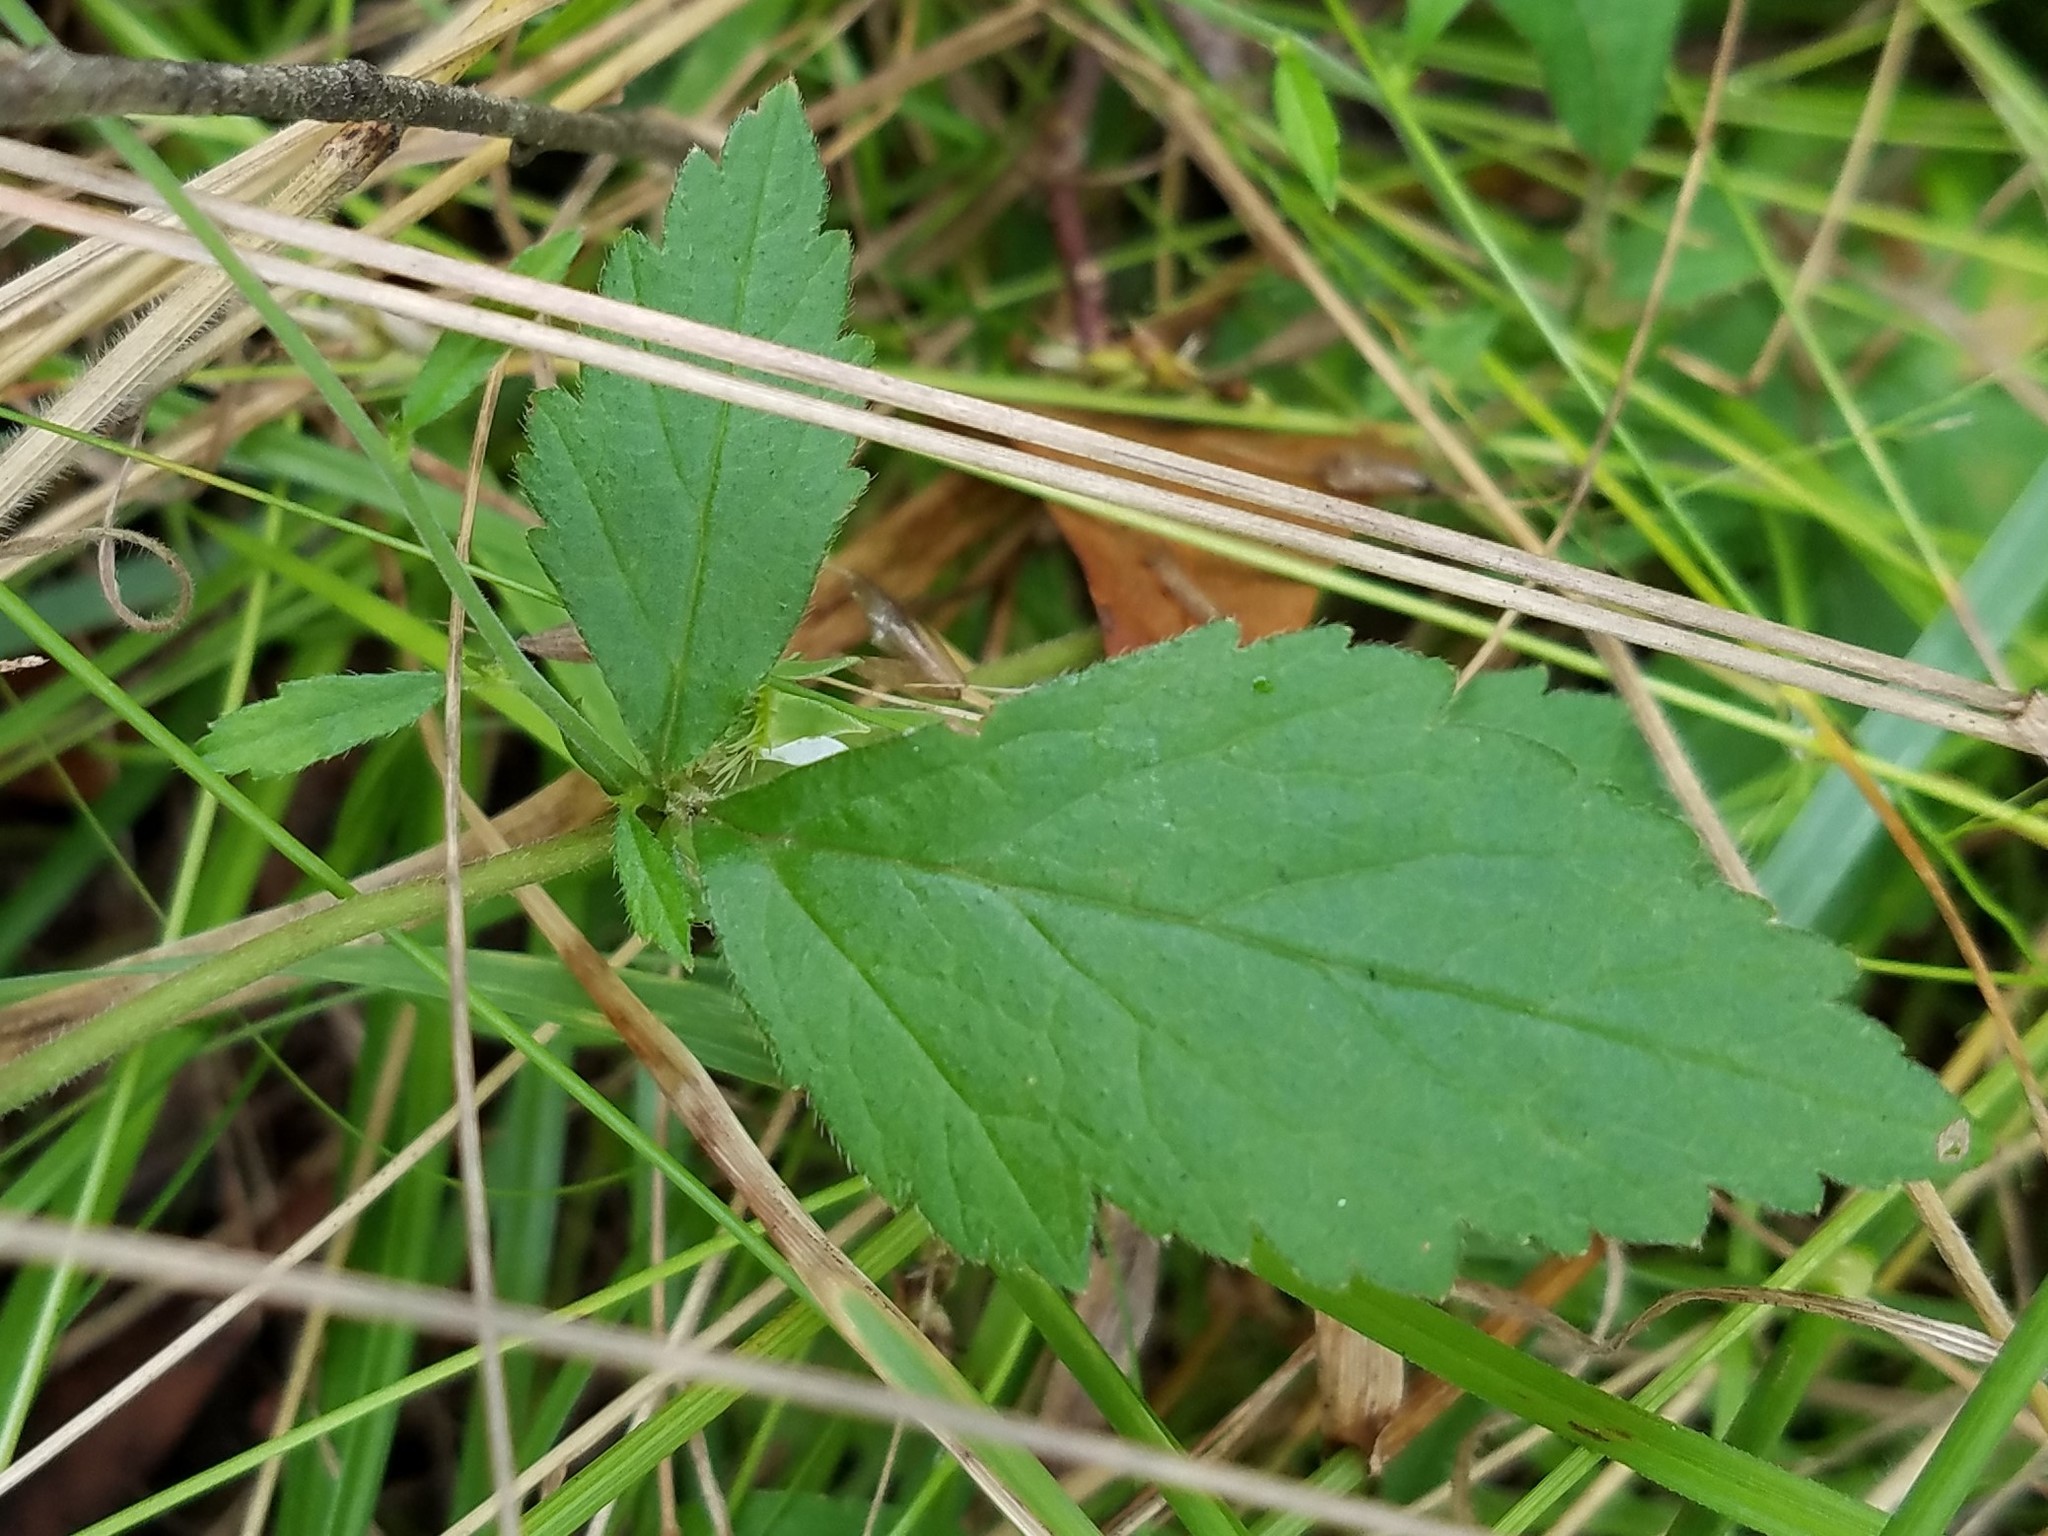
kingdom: Plantae
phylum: Tracheophyta
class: Magnoliopsida
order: Rosales
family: Rosaceae
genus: Geum
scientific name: Geum canadense
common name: White avens
